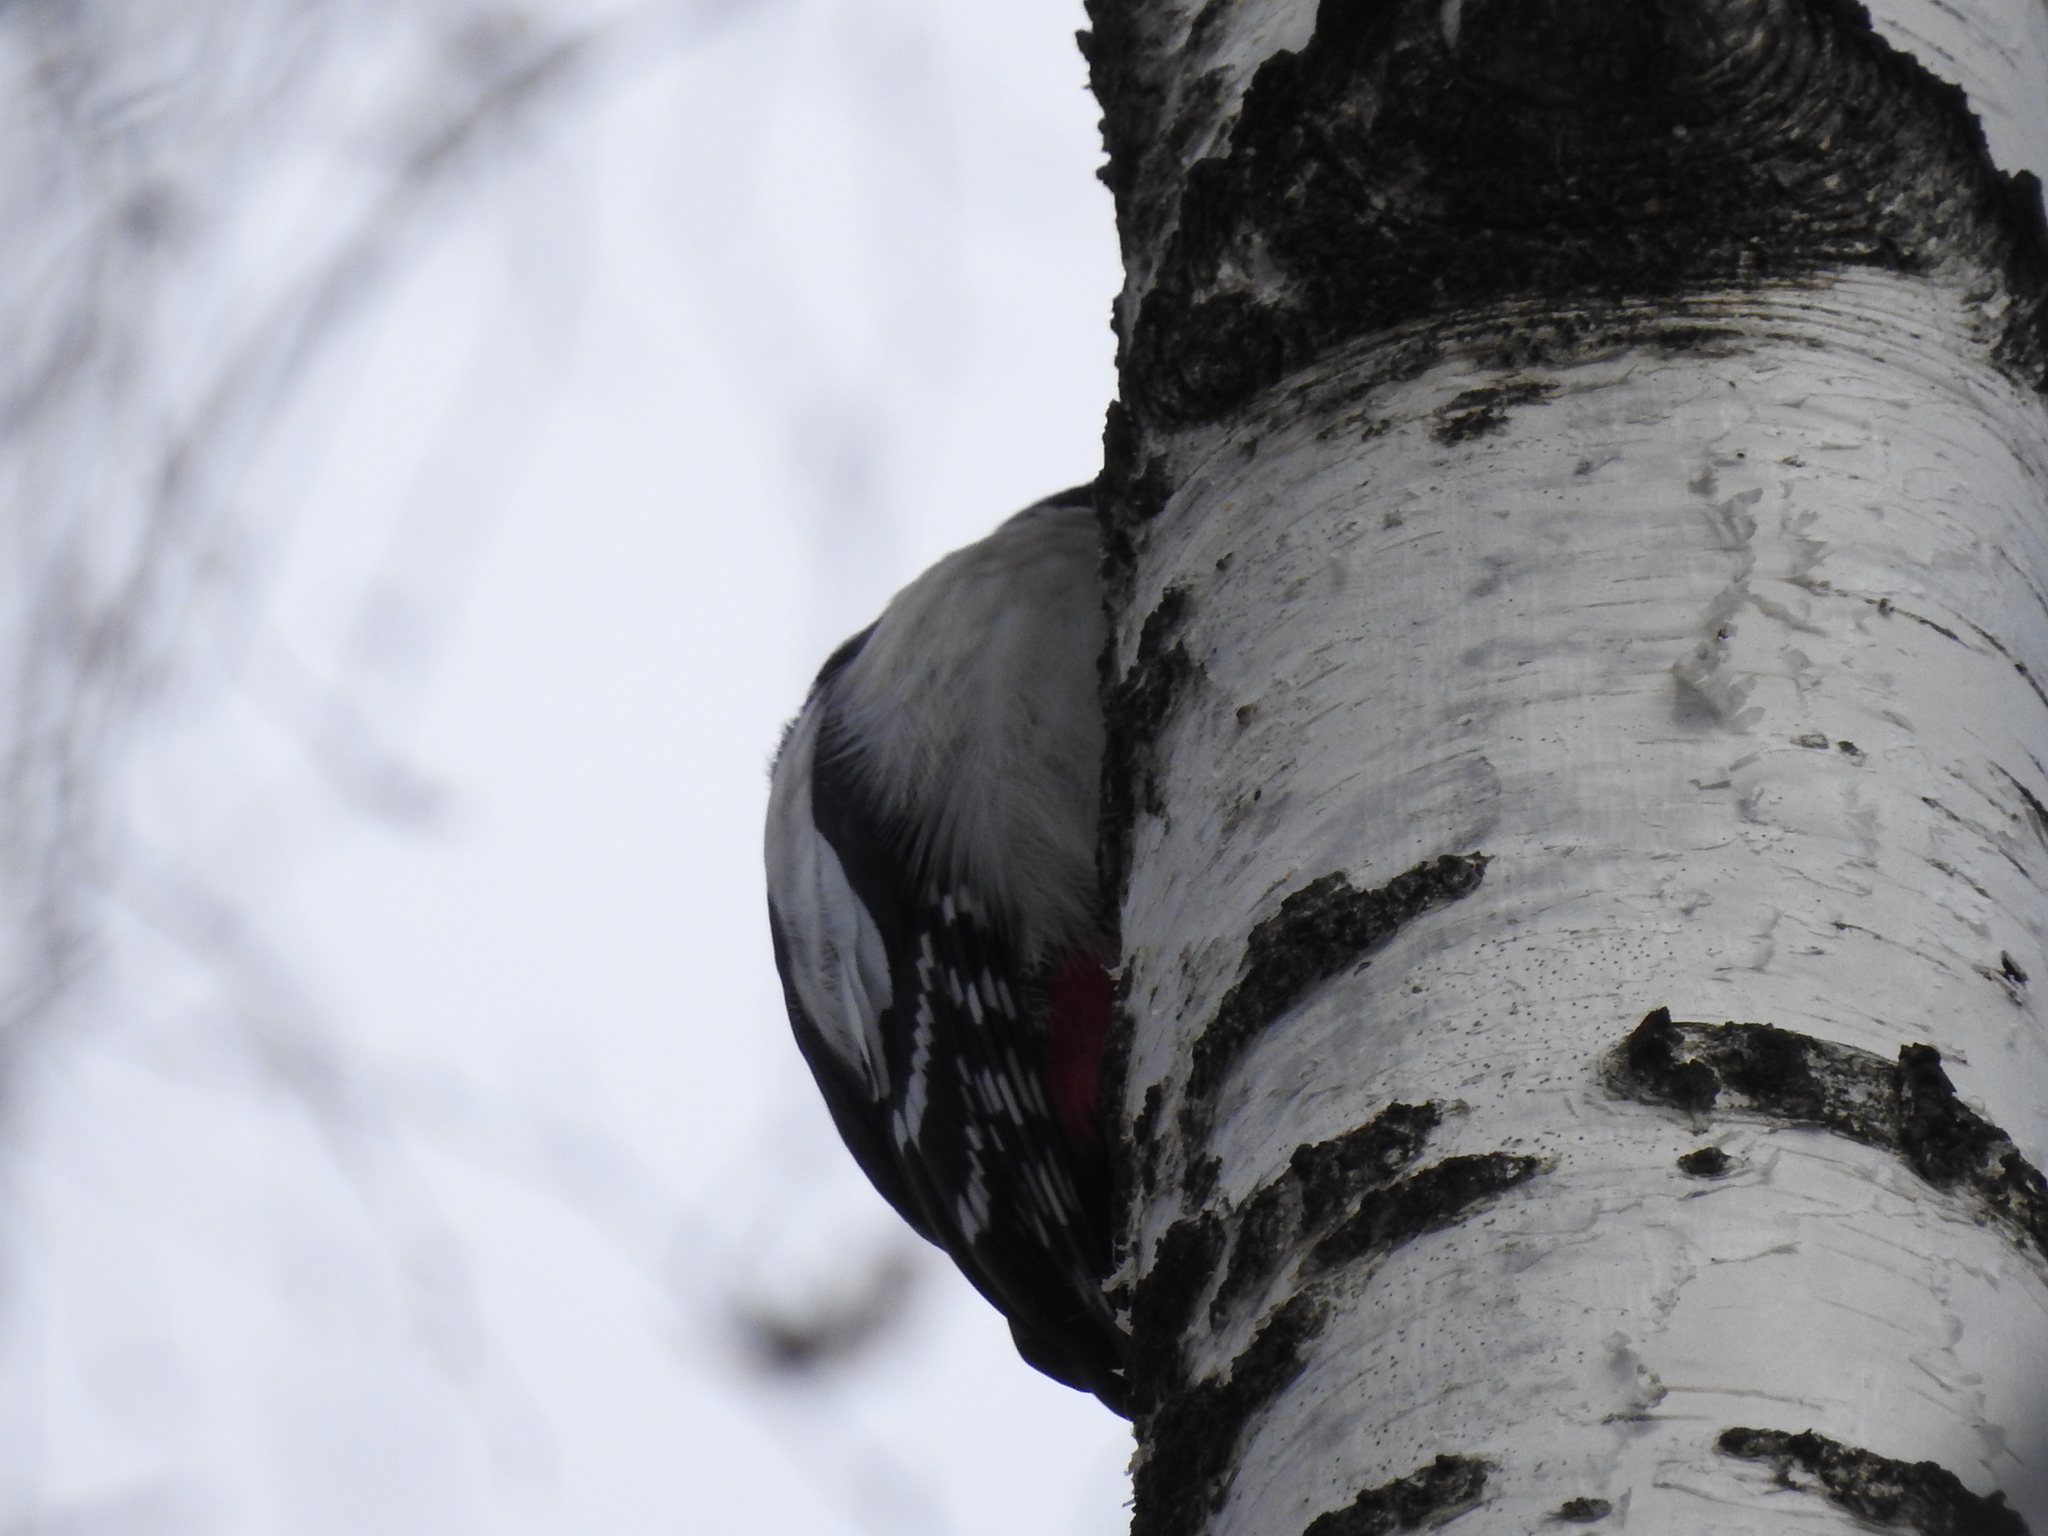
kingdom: Animalia
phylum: Chordata
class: Aves
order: Piciformes
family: Picidae
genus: Dendrocopos
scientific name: Dendrocopos major
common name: Great spotted woodpecker
